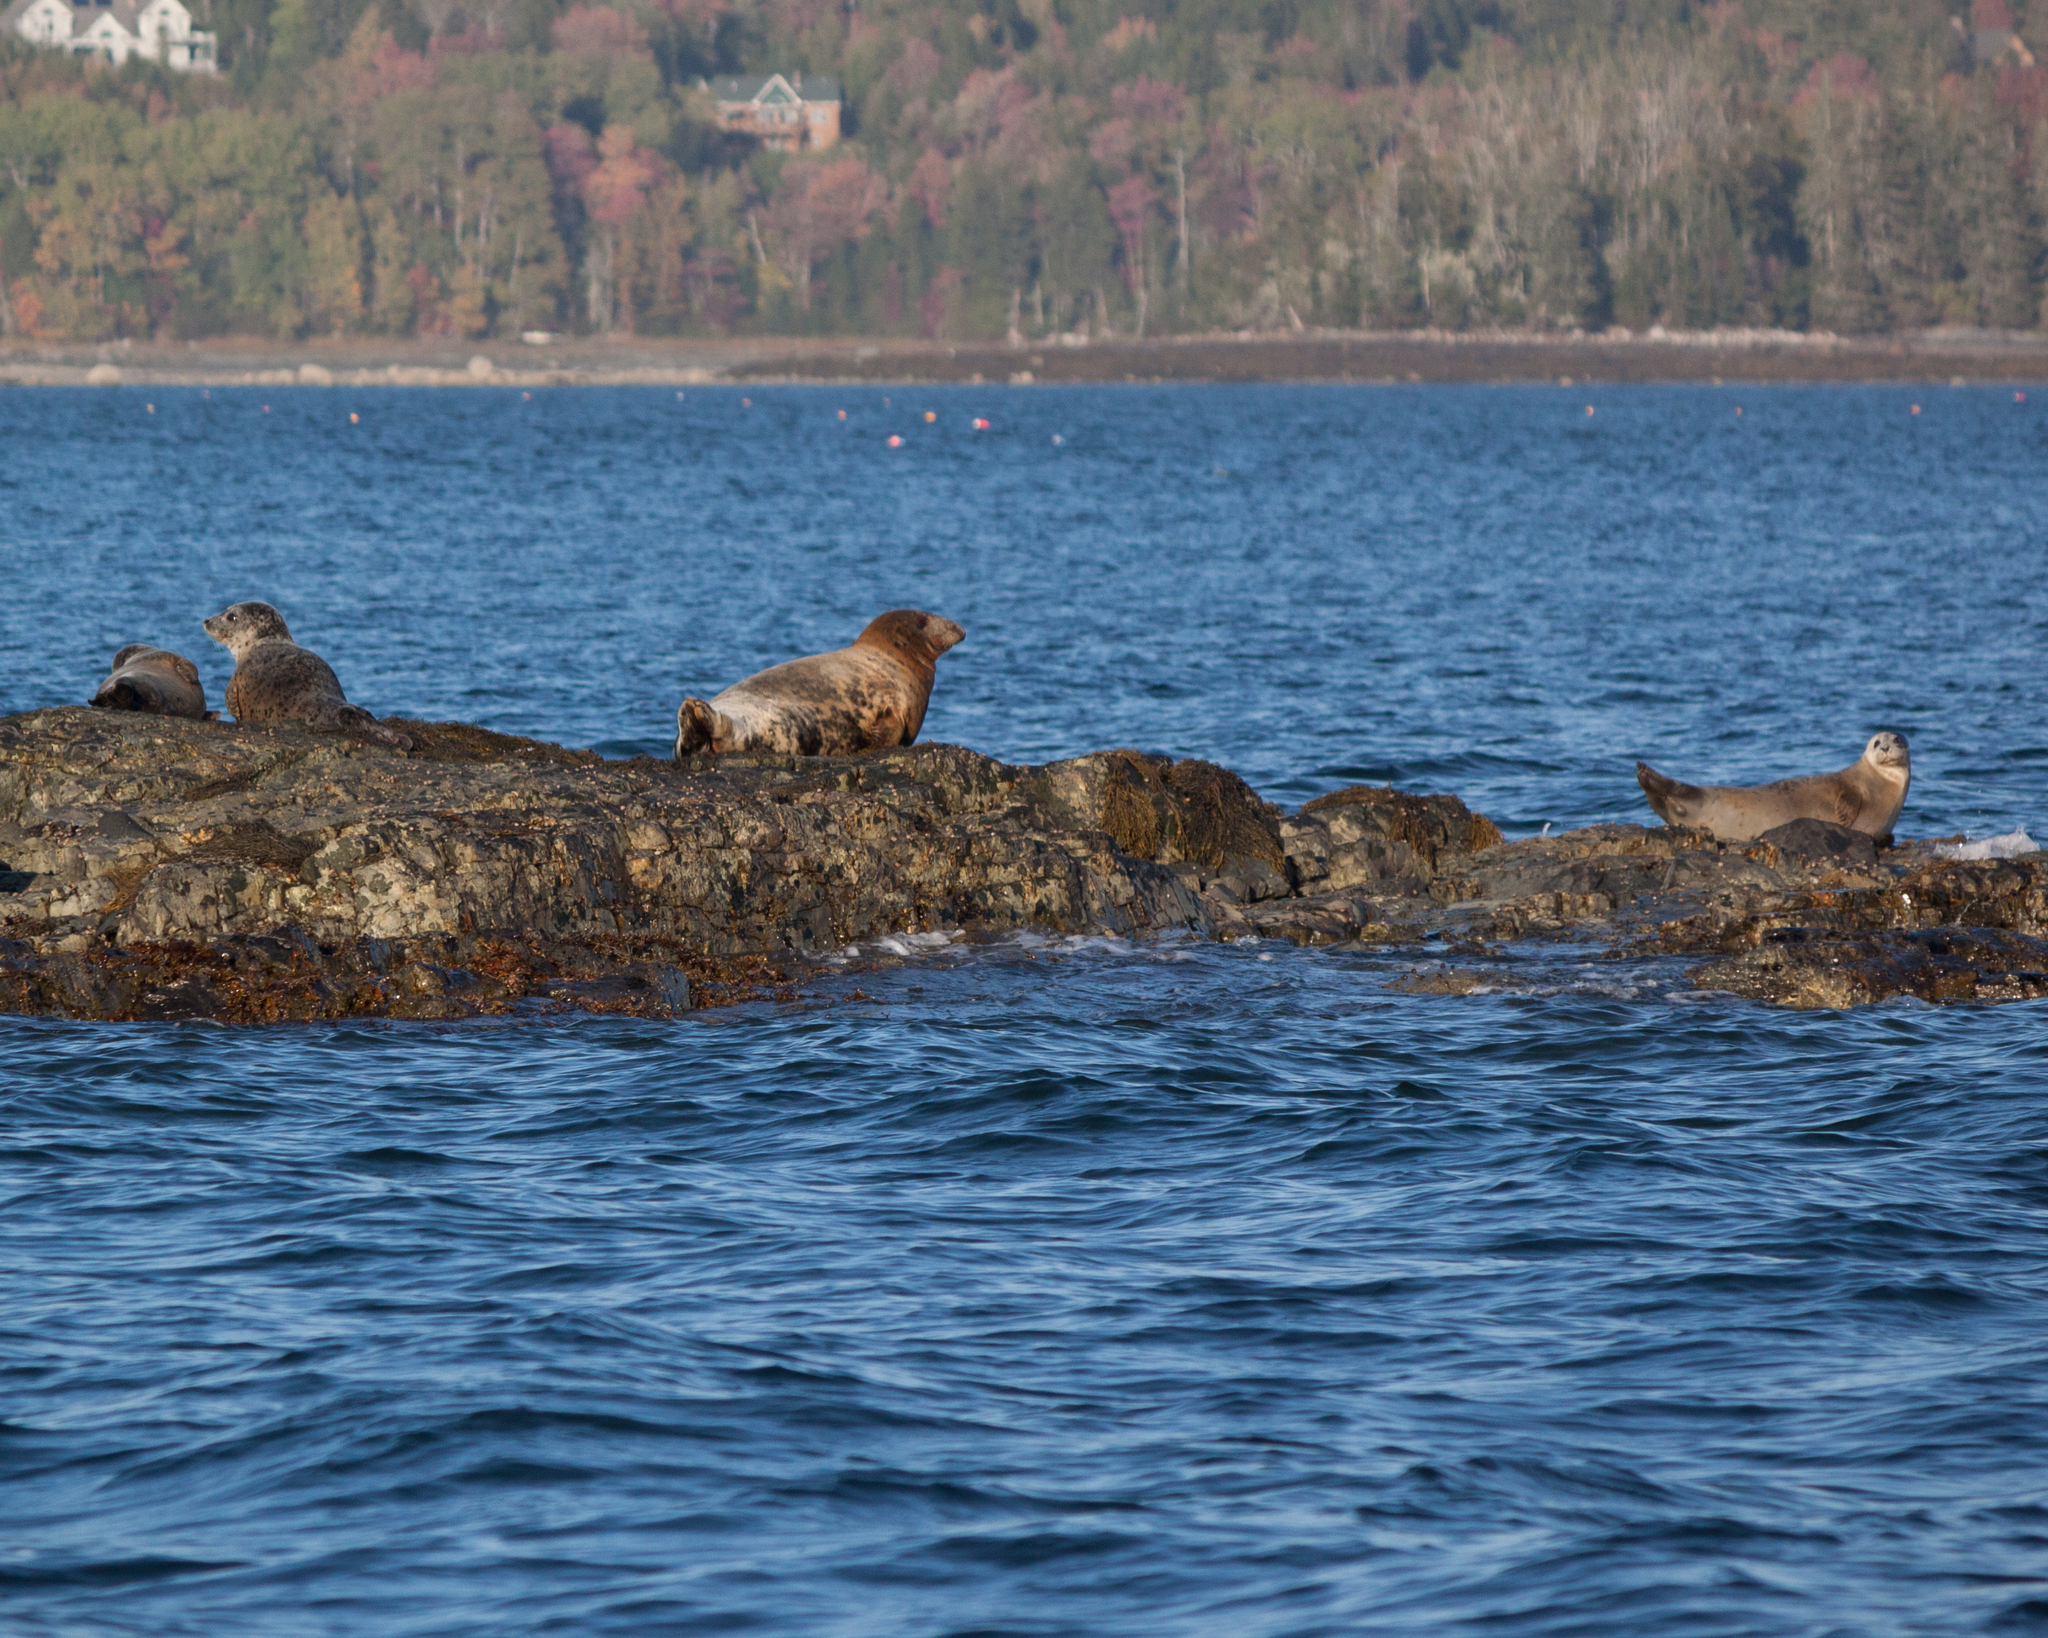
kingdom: Animalia
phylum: Chordata
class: Mammalia
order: Carnivora
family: Phocidae
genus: Phoca
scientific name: Phoca vitulina
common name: Harbor seal
